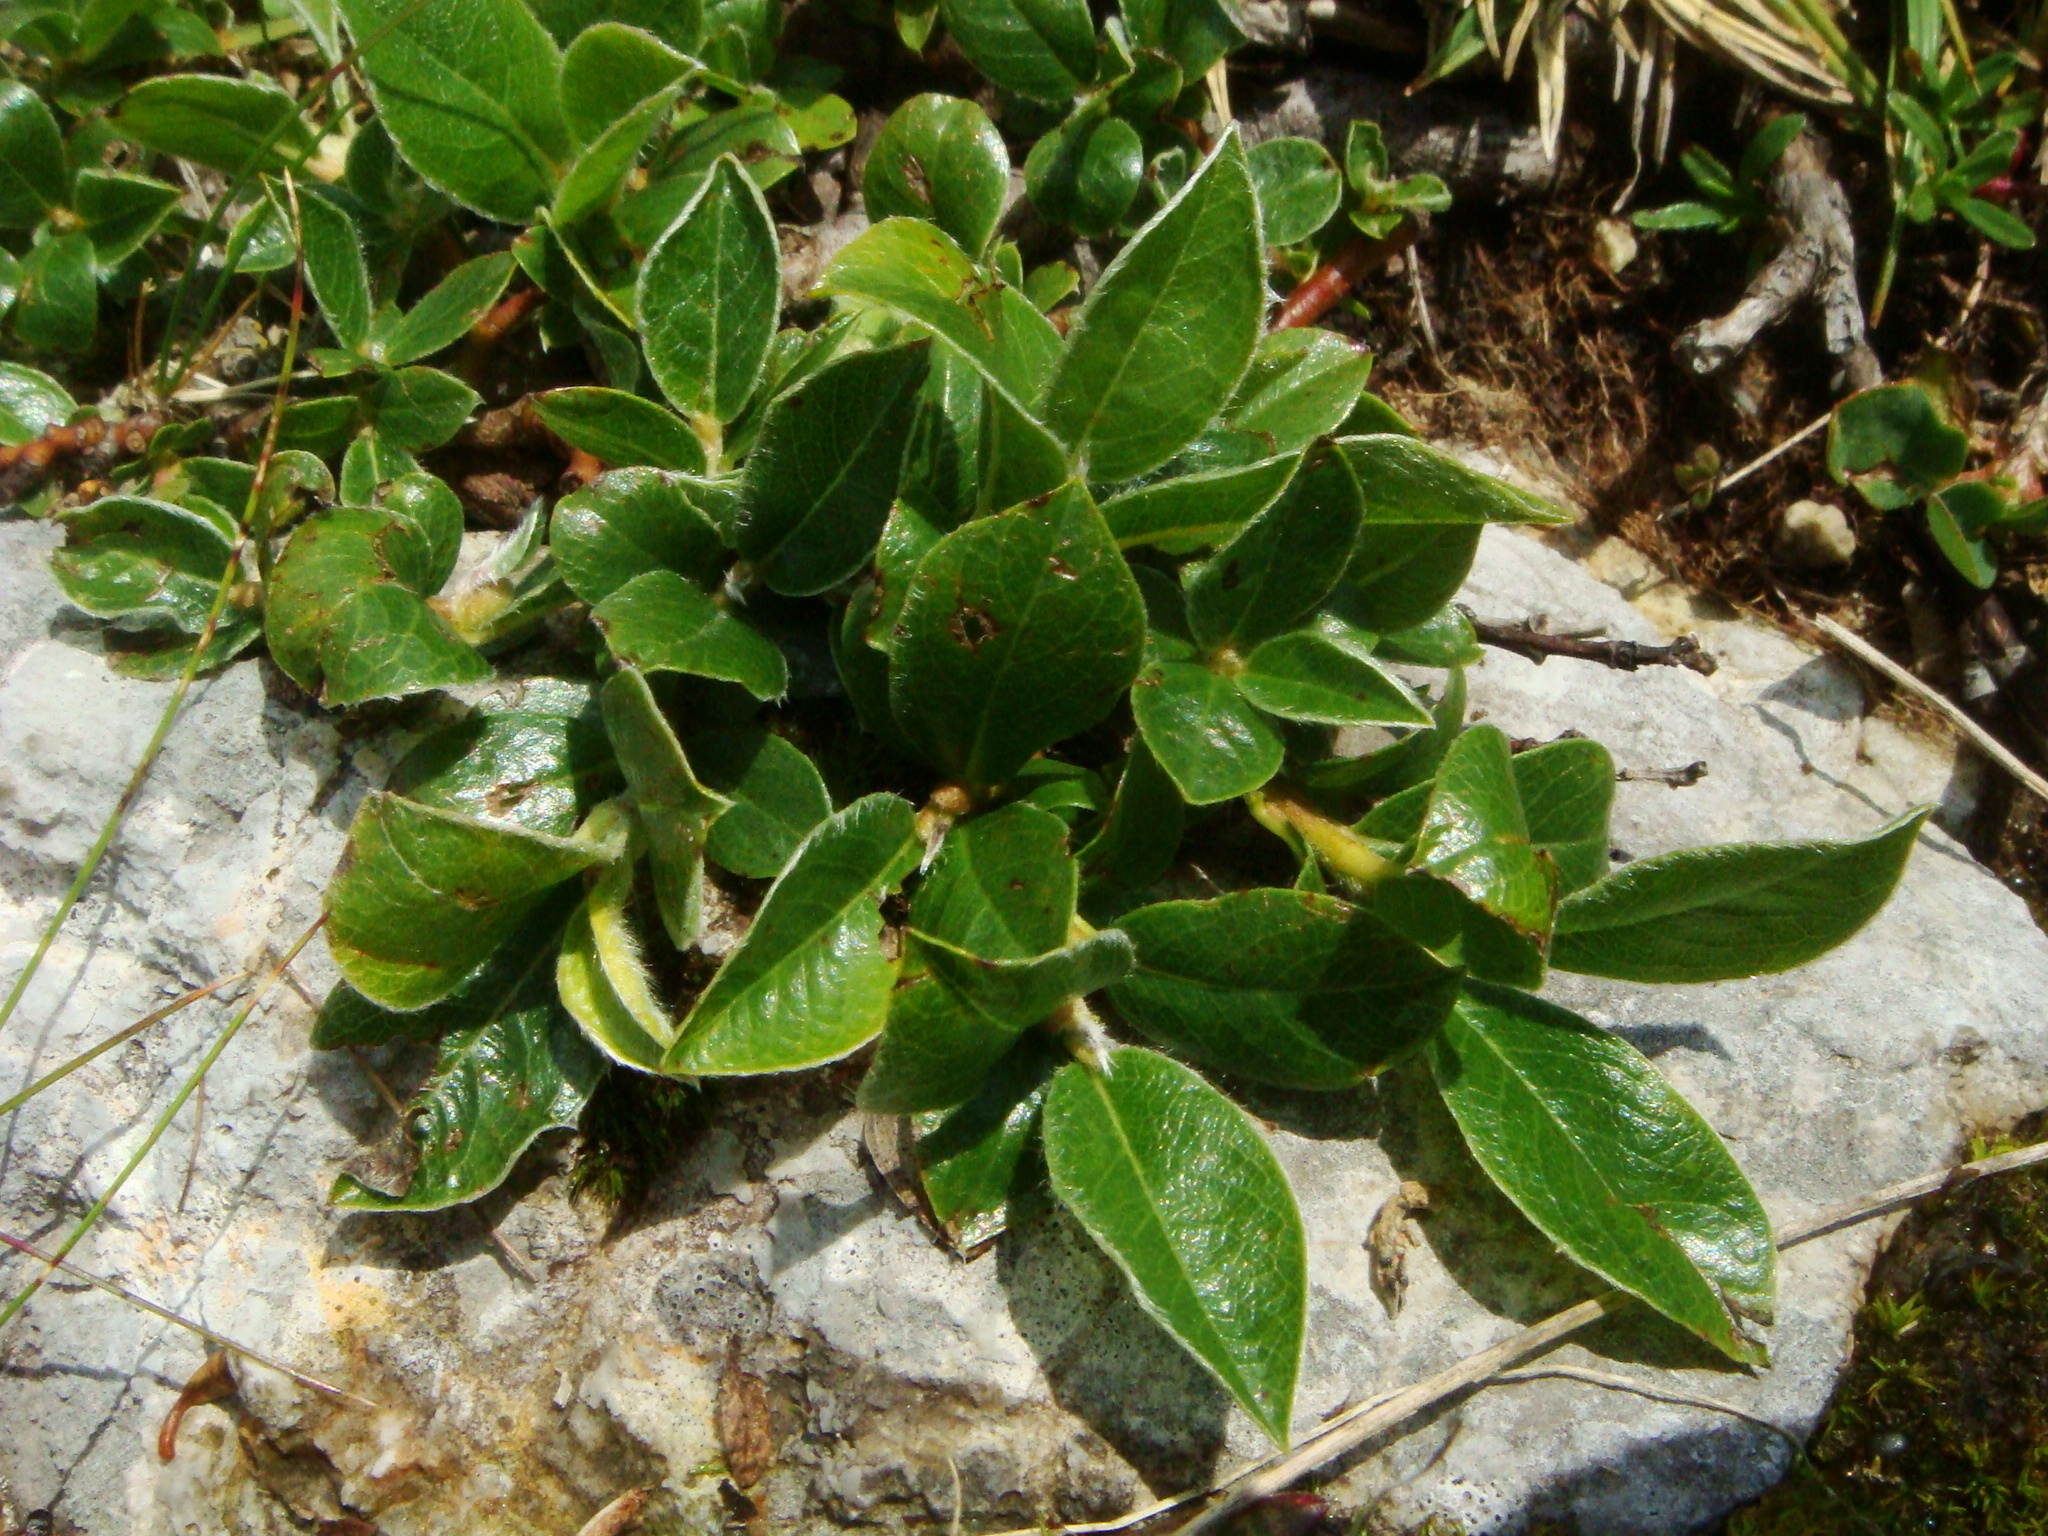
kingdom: Plantae
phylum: Tracheophyta
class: Magnoliopsida
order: Malpighiales
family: Salicaceae
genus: Salix
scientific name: Salix alpina
